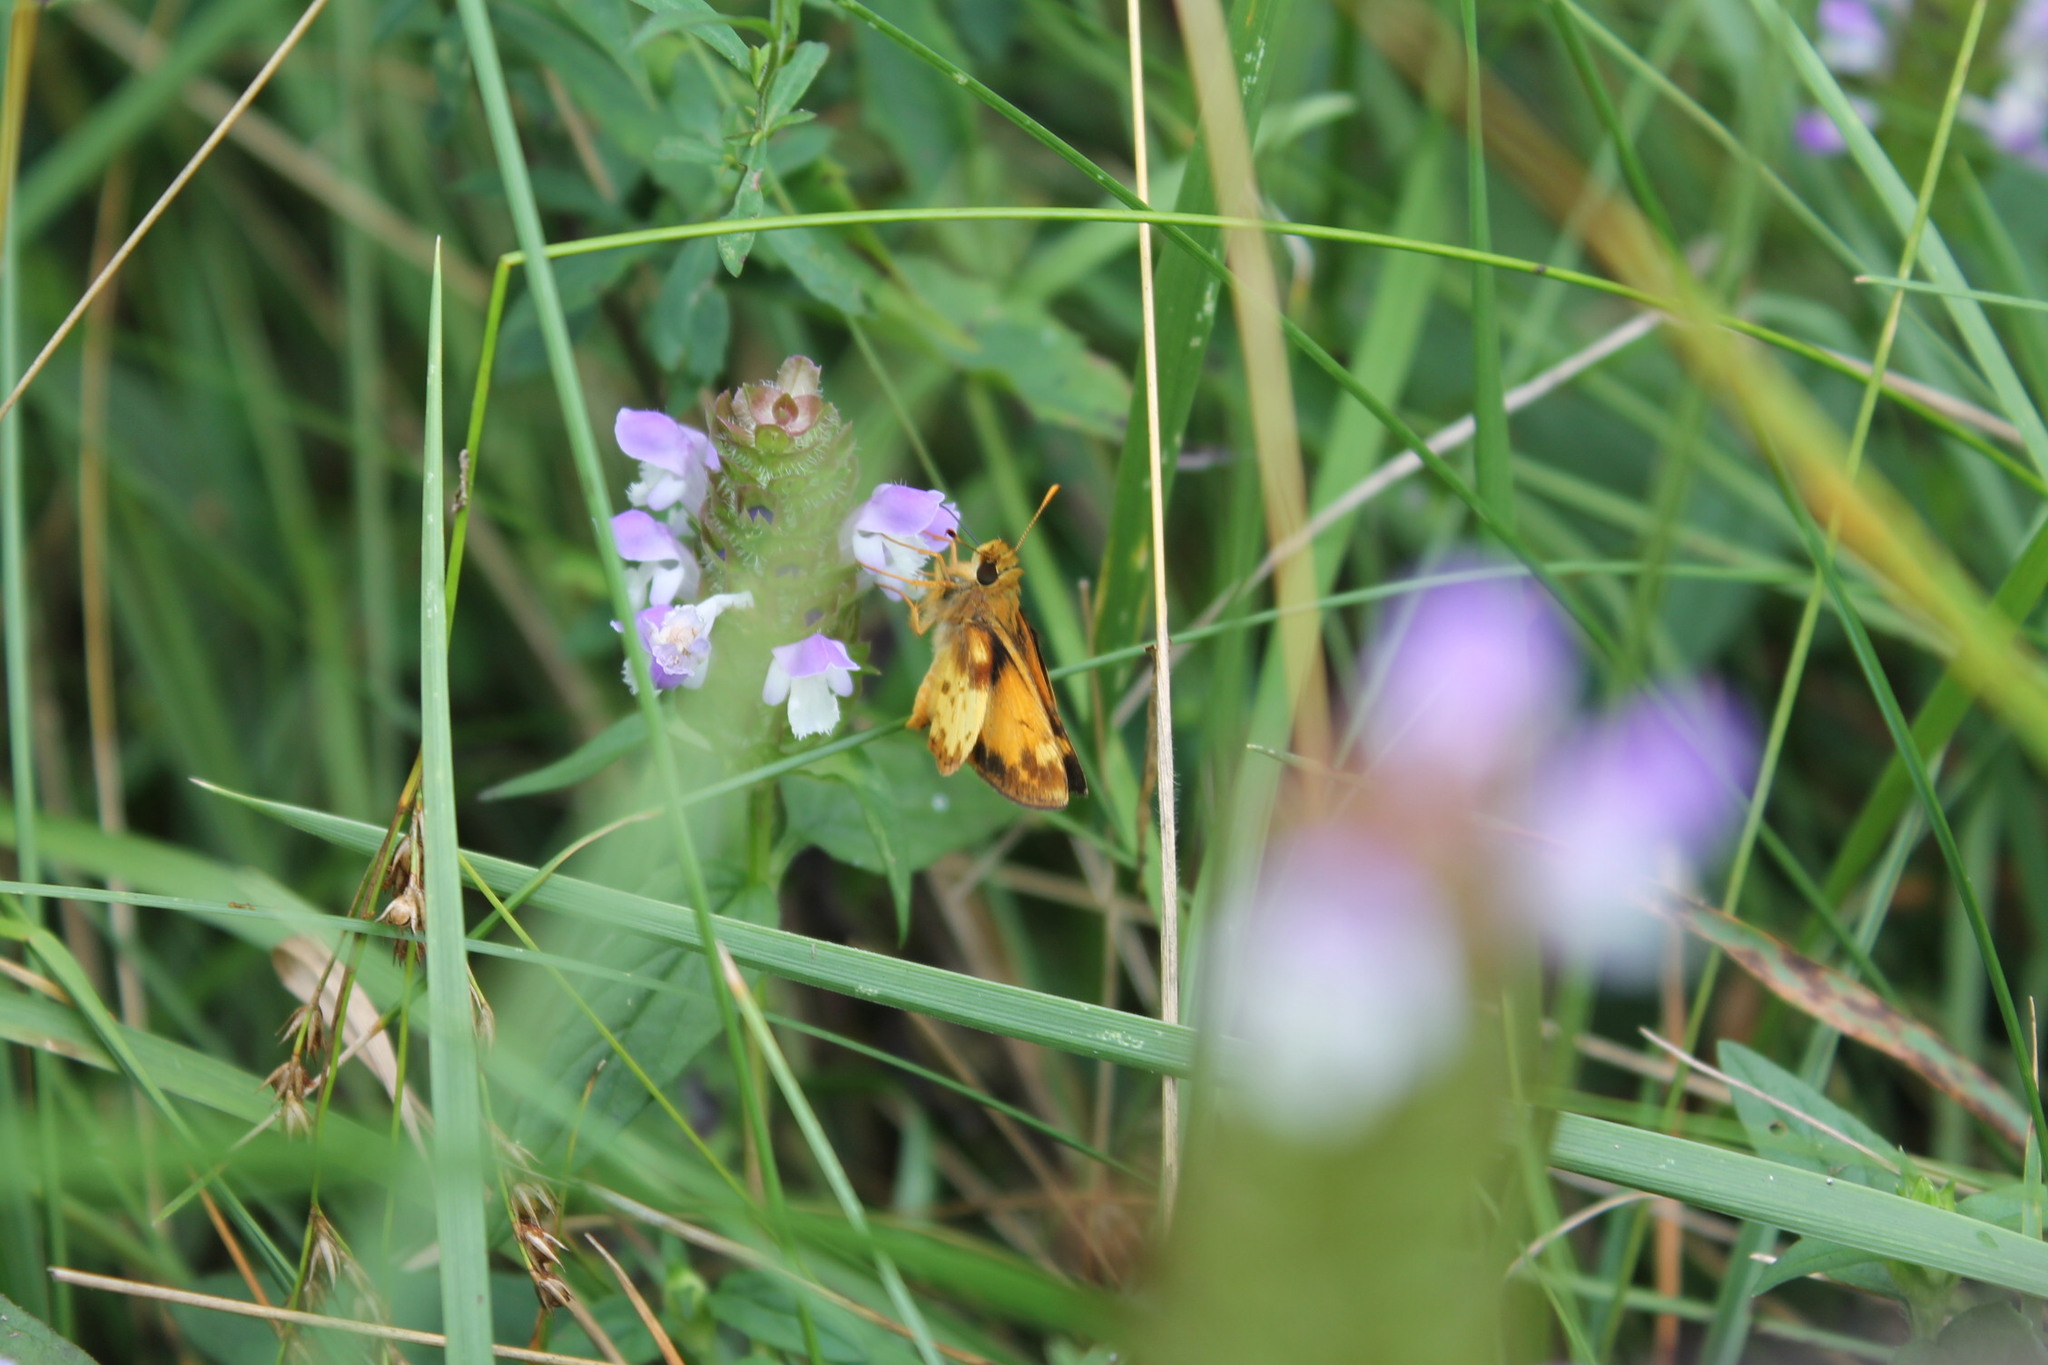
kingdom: Animalia
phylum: Arthropoda
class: Insecta
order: Lepidoptera
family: Hesperiidae
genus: Lon
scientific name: Lon zabulon
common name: Zabulon skipper
